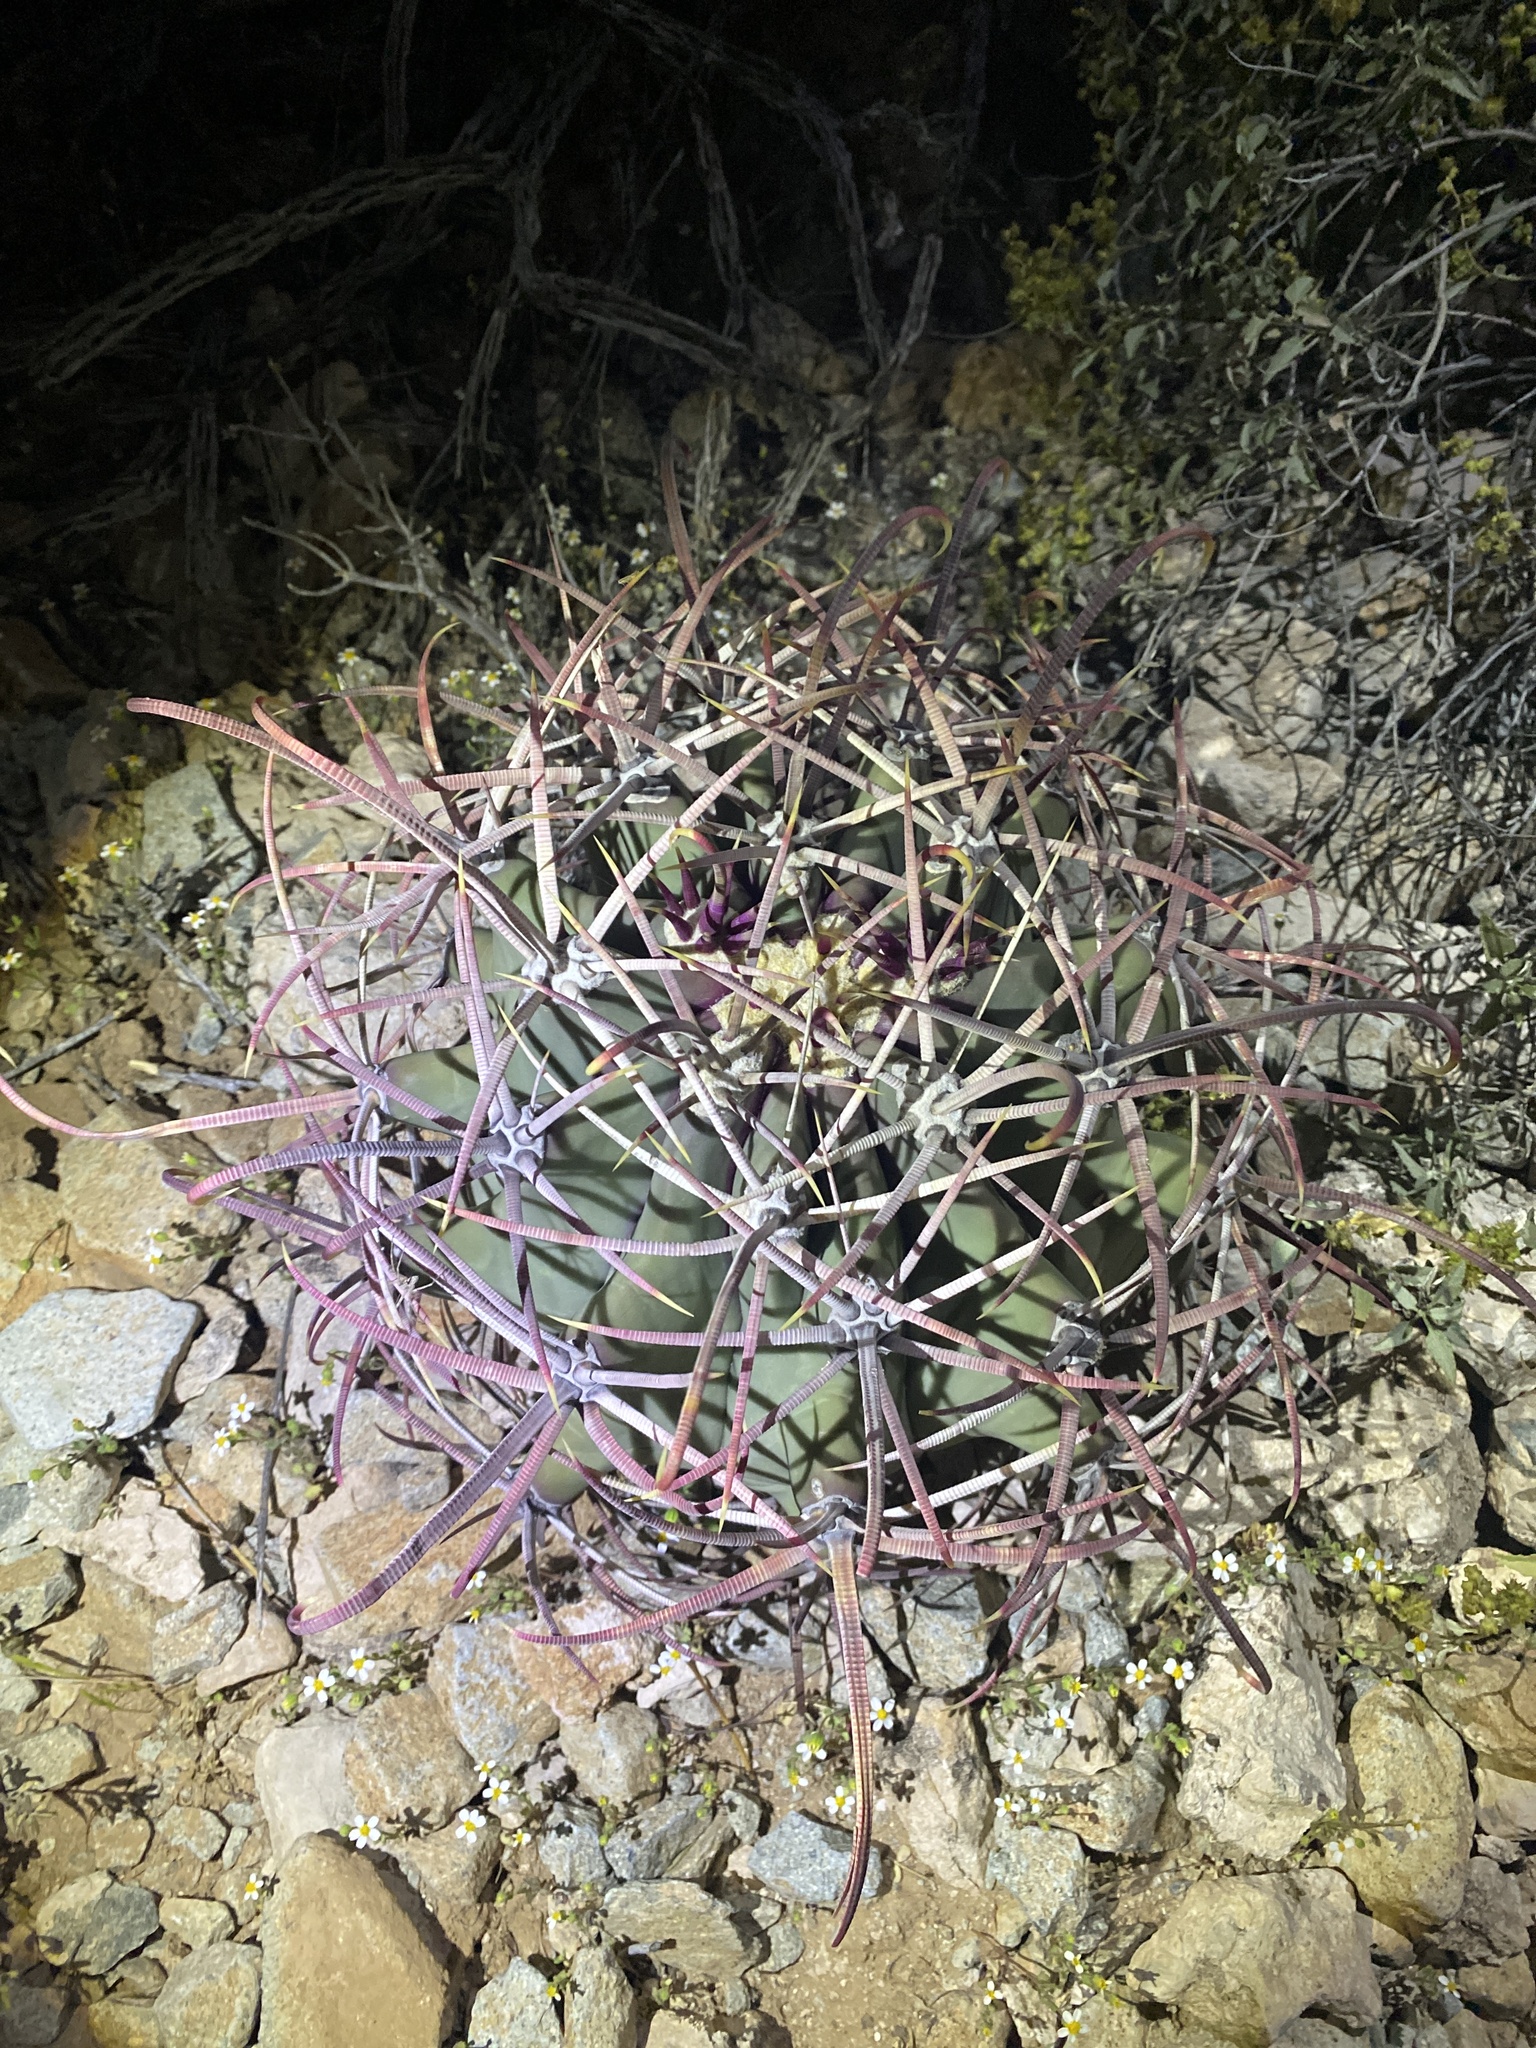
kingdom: Plantae
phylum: Tracheophyta
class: Magnoliopsida
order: Caryophyllales
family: Cactaceae
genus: Ferocactus
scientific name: Ferocactus emoryi
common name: Emory's barrel cactus
